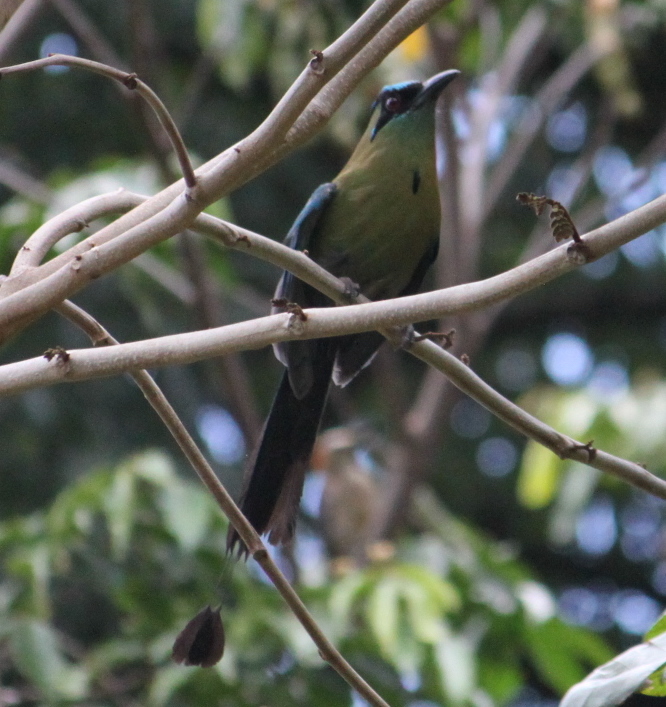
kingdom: Animalia
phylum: Chordata
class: Aves
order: Coraciiformes
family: Momotidae
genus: Momotus
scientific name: Momotus lessonii
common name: Lesson's motmot
